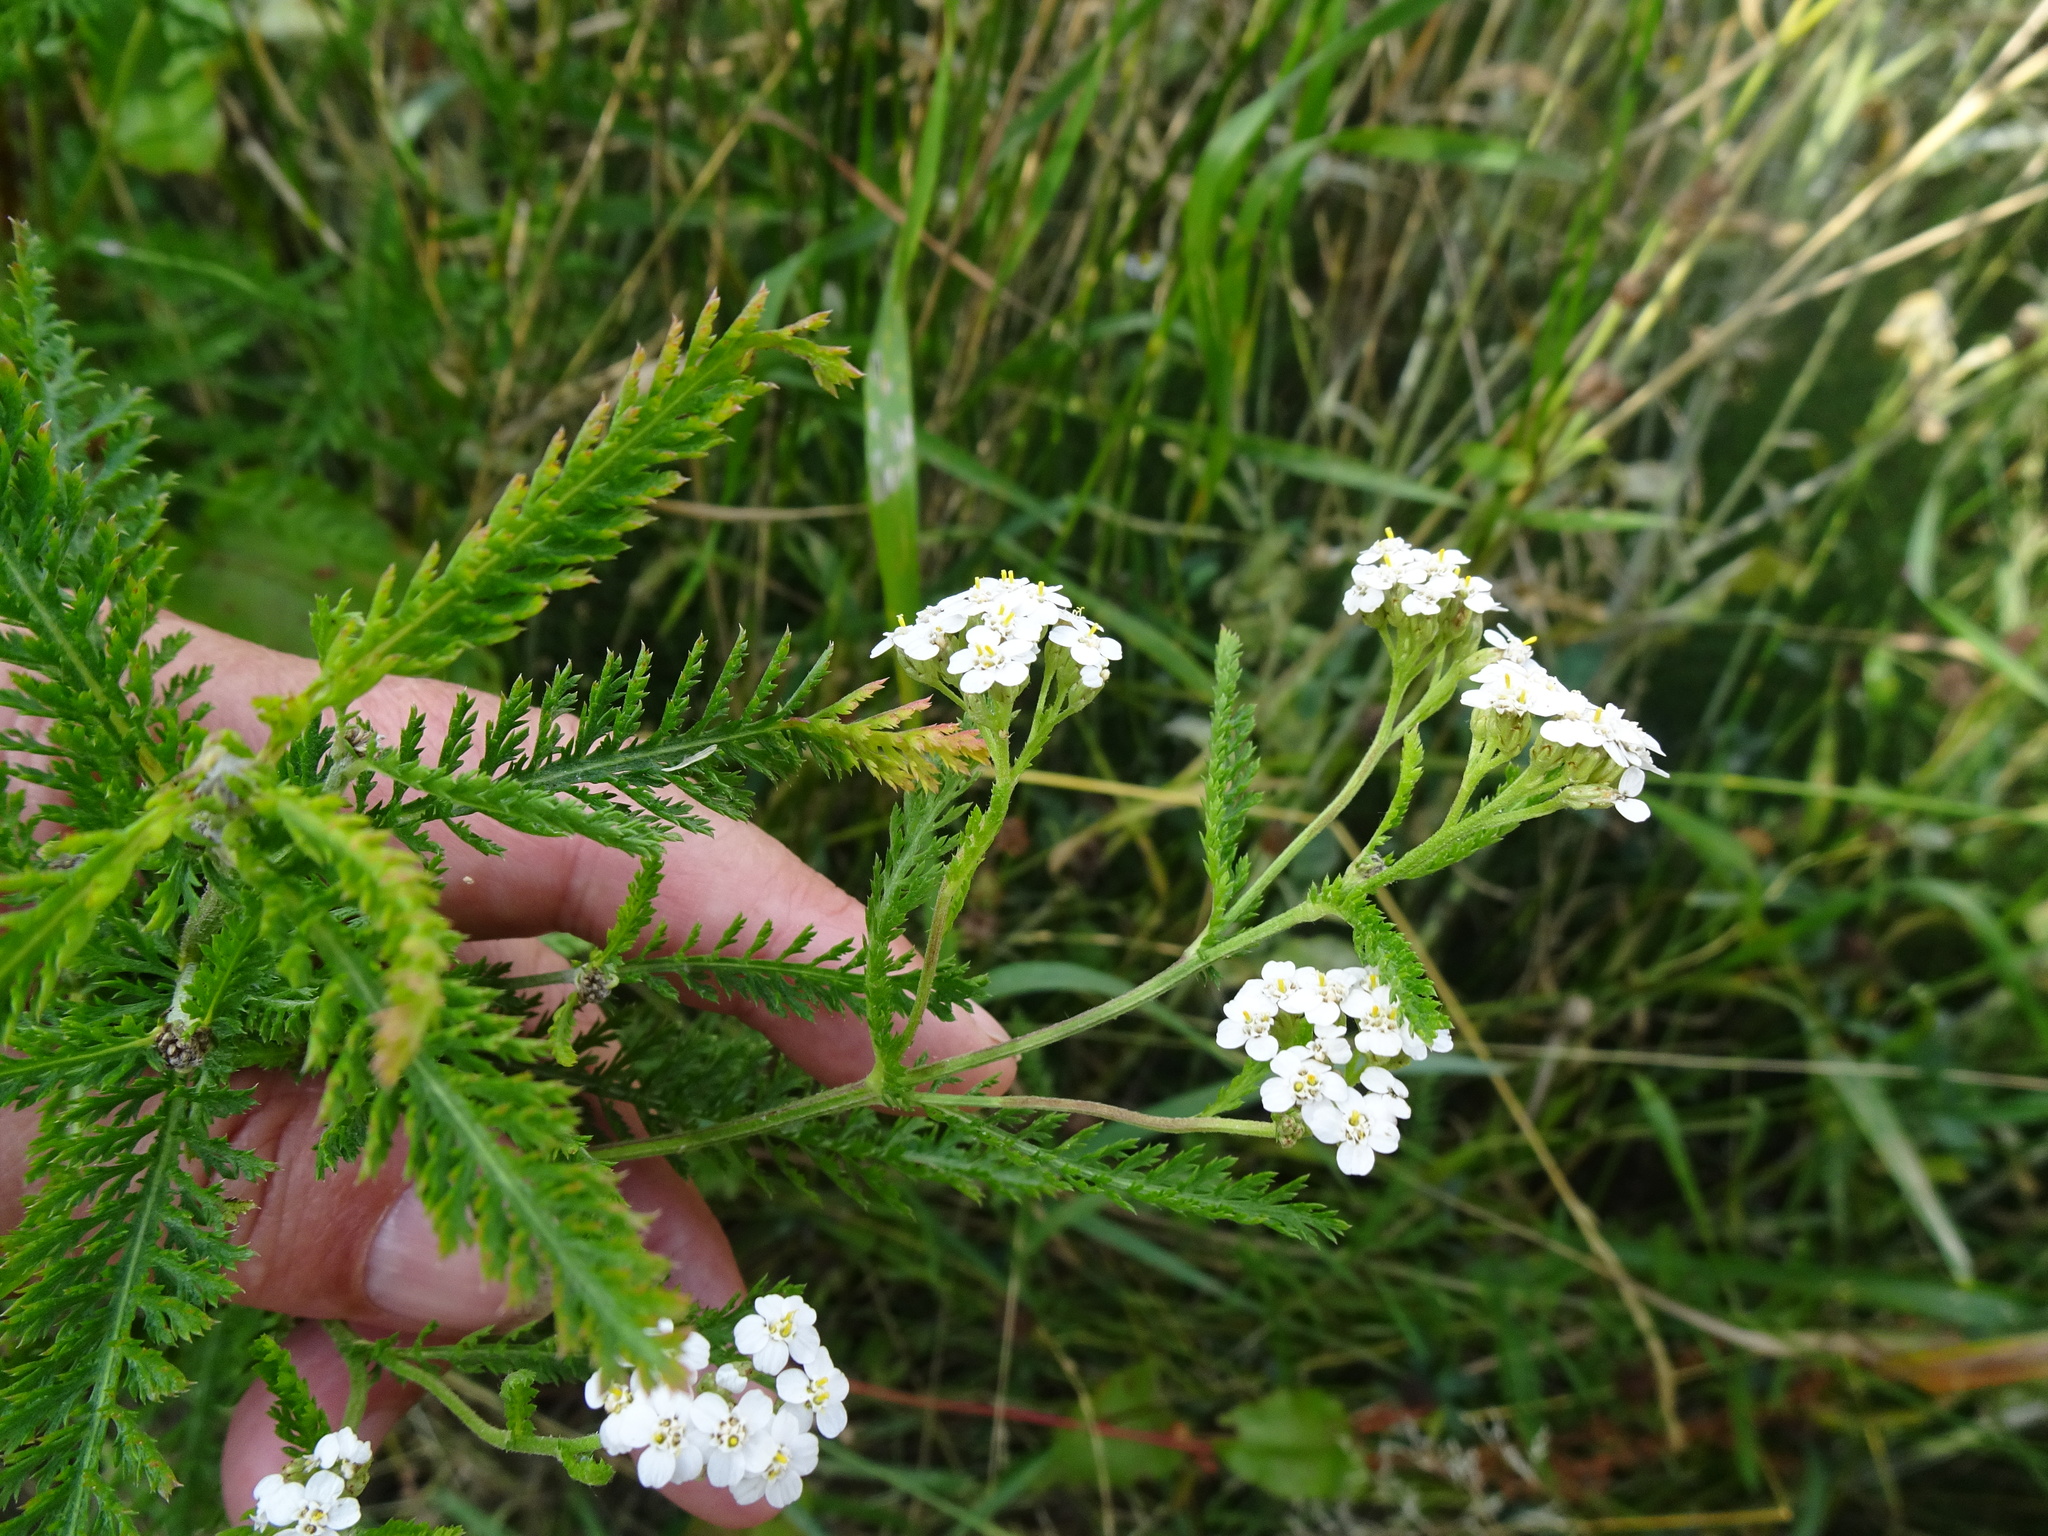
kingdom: Plantae
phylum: Tracheophyta
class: Magnoliopsida
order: Asterales
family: Asteraceae
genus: Achillea
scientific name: Achillea millefolium
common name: Yarrow
